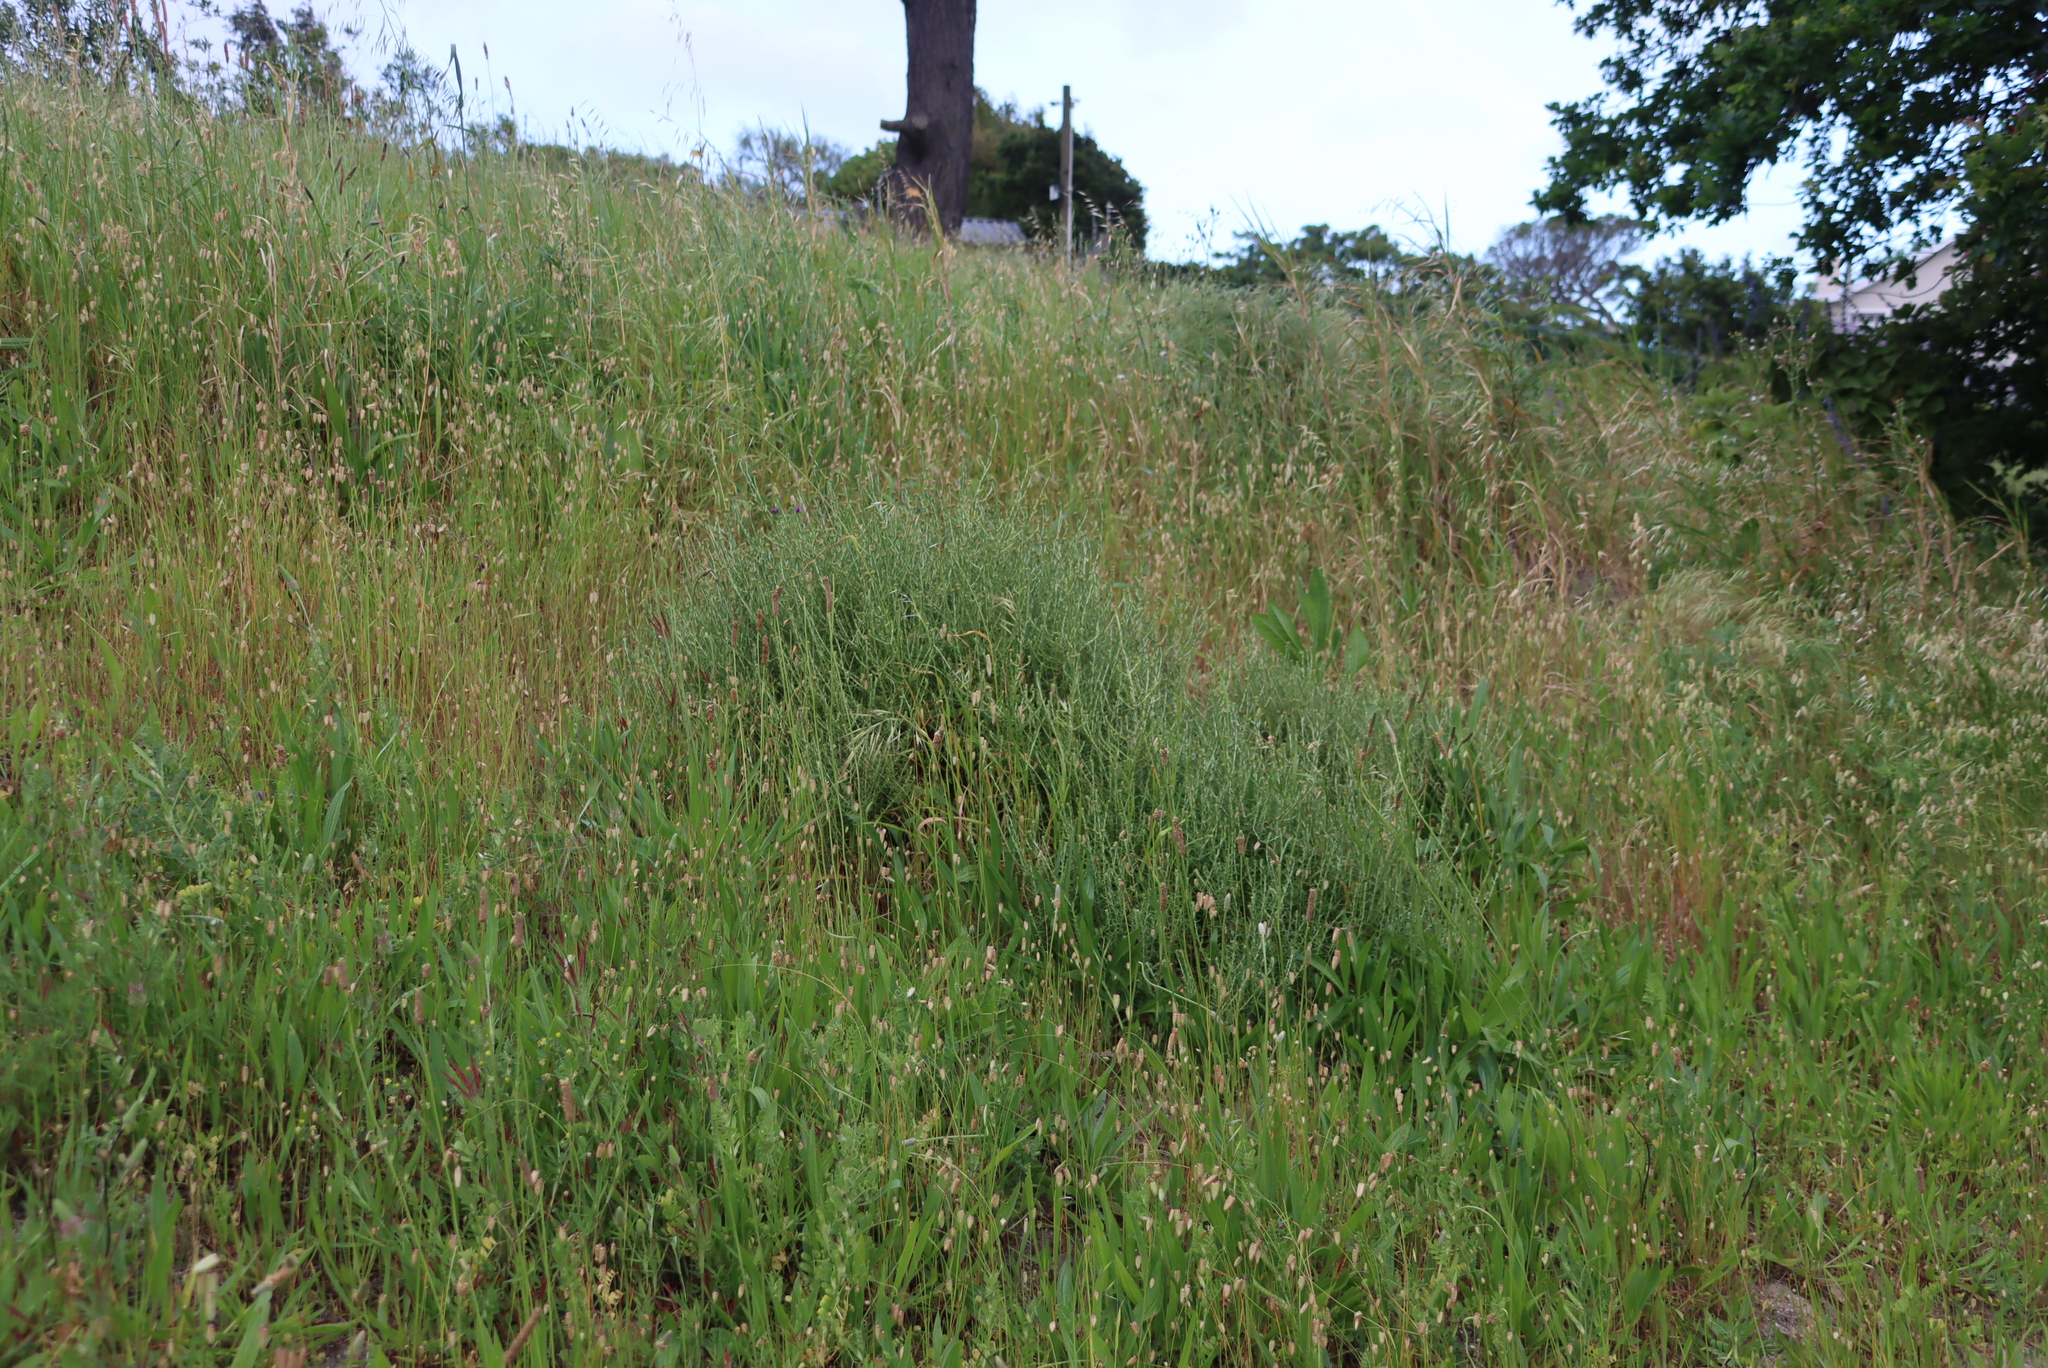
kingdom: Plantae
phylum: Tracheophyta
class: Liliopsida
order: Poales
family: Poaceae
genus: Briza
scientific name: Briza maxima
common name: Big quakinggrass
